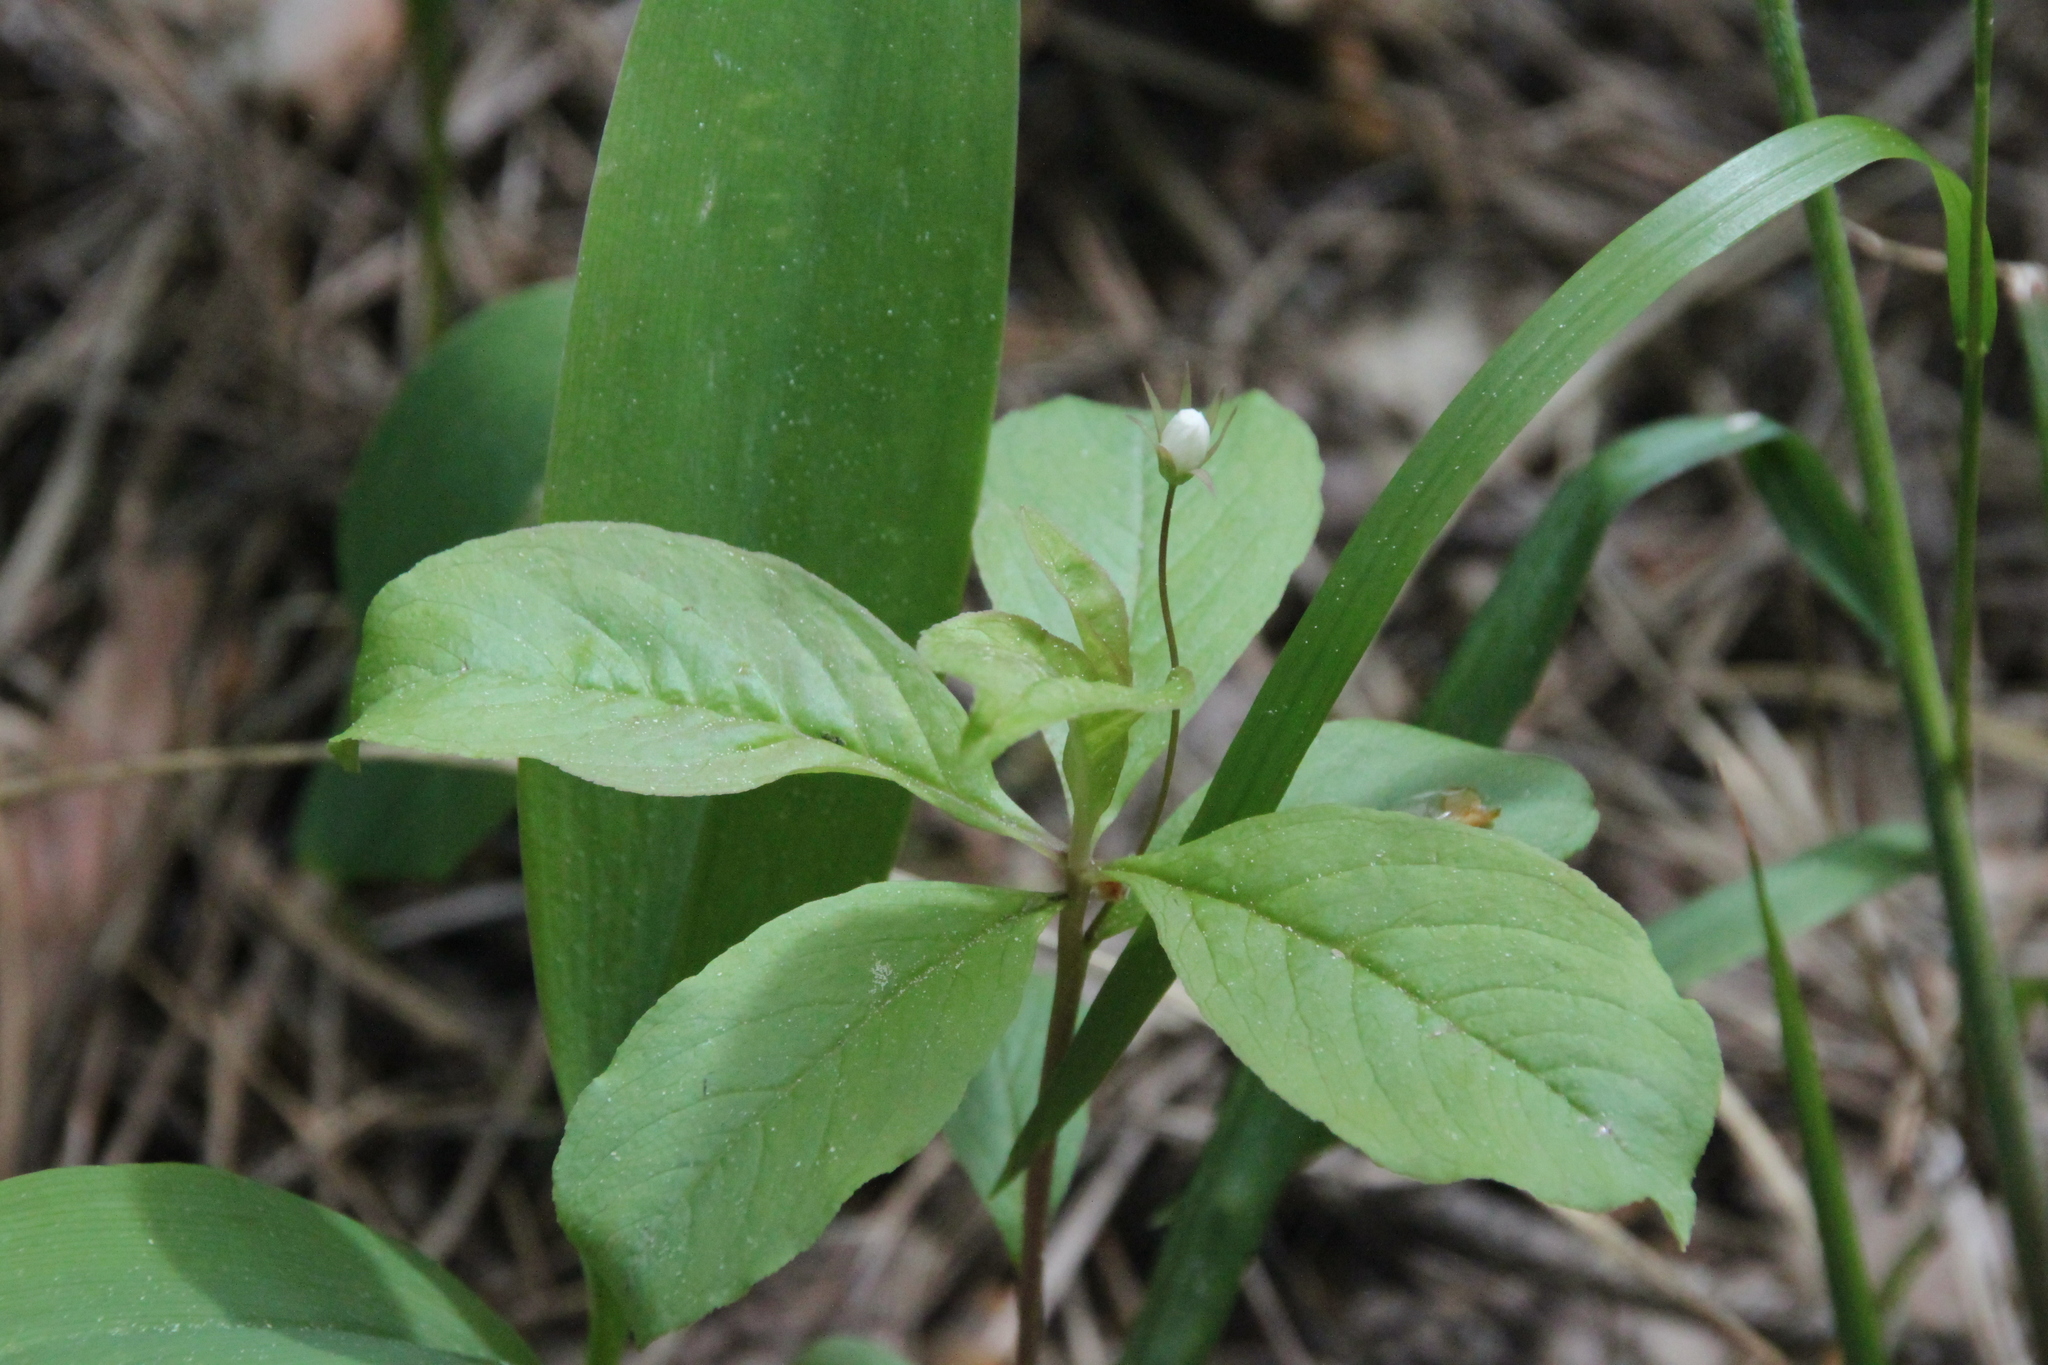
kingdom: Plantae
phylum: Tracheophyta
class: Magnoliopsida
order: Ericales
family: Primulaceae
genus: Lysimachia
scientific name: Lysimachia europaea
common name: Arctic starflower
